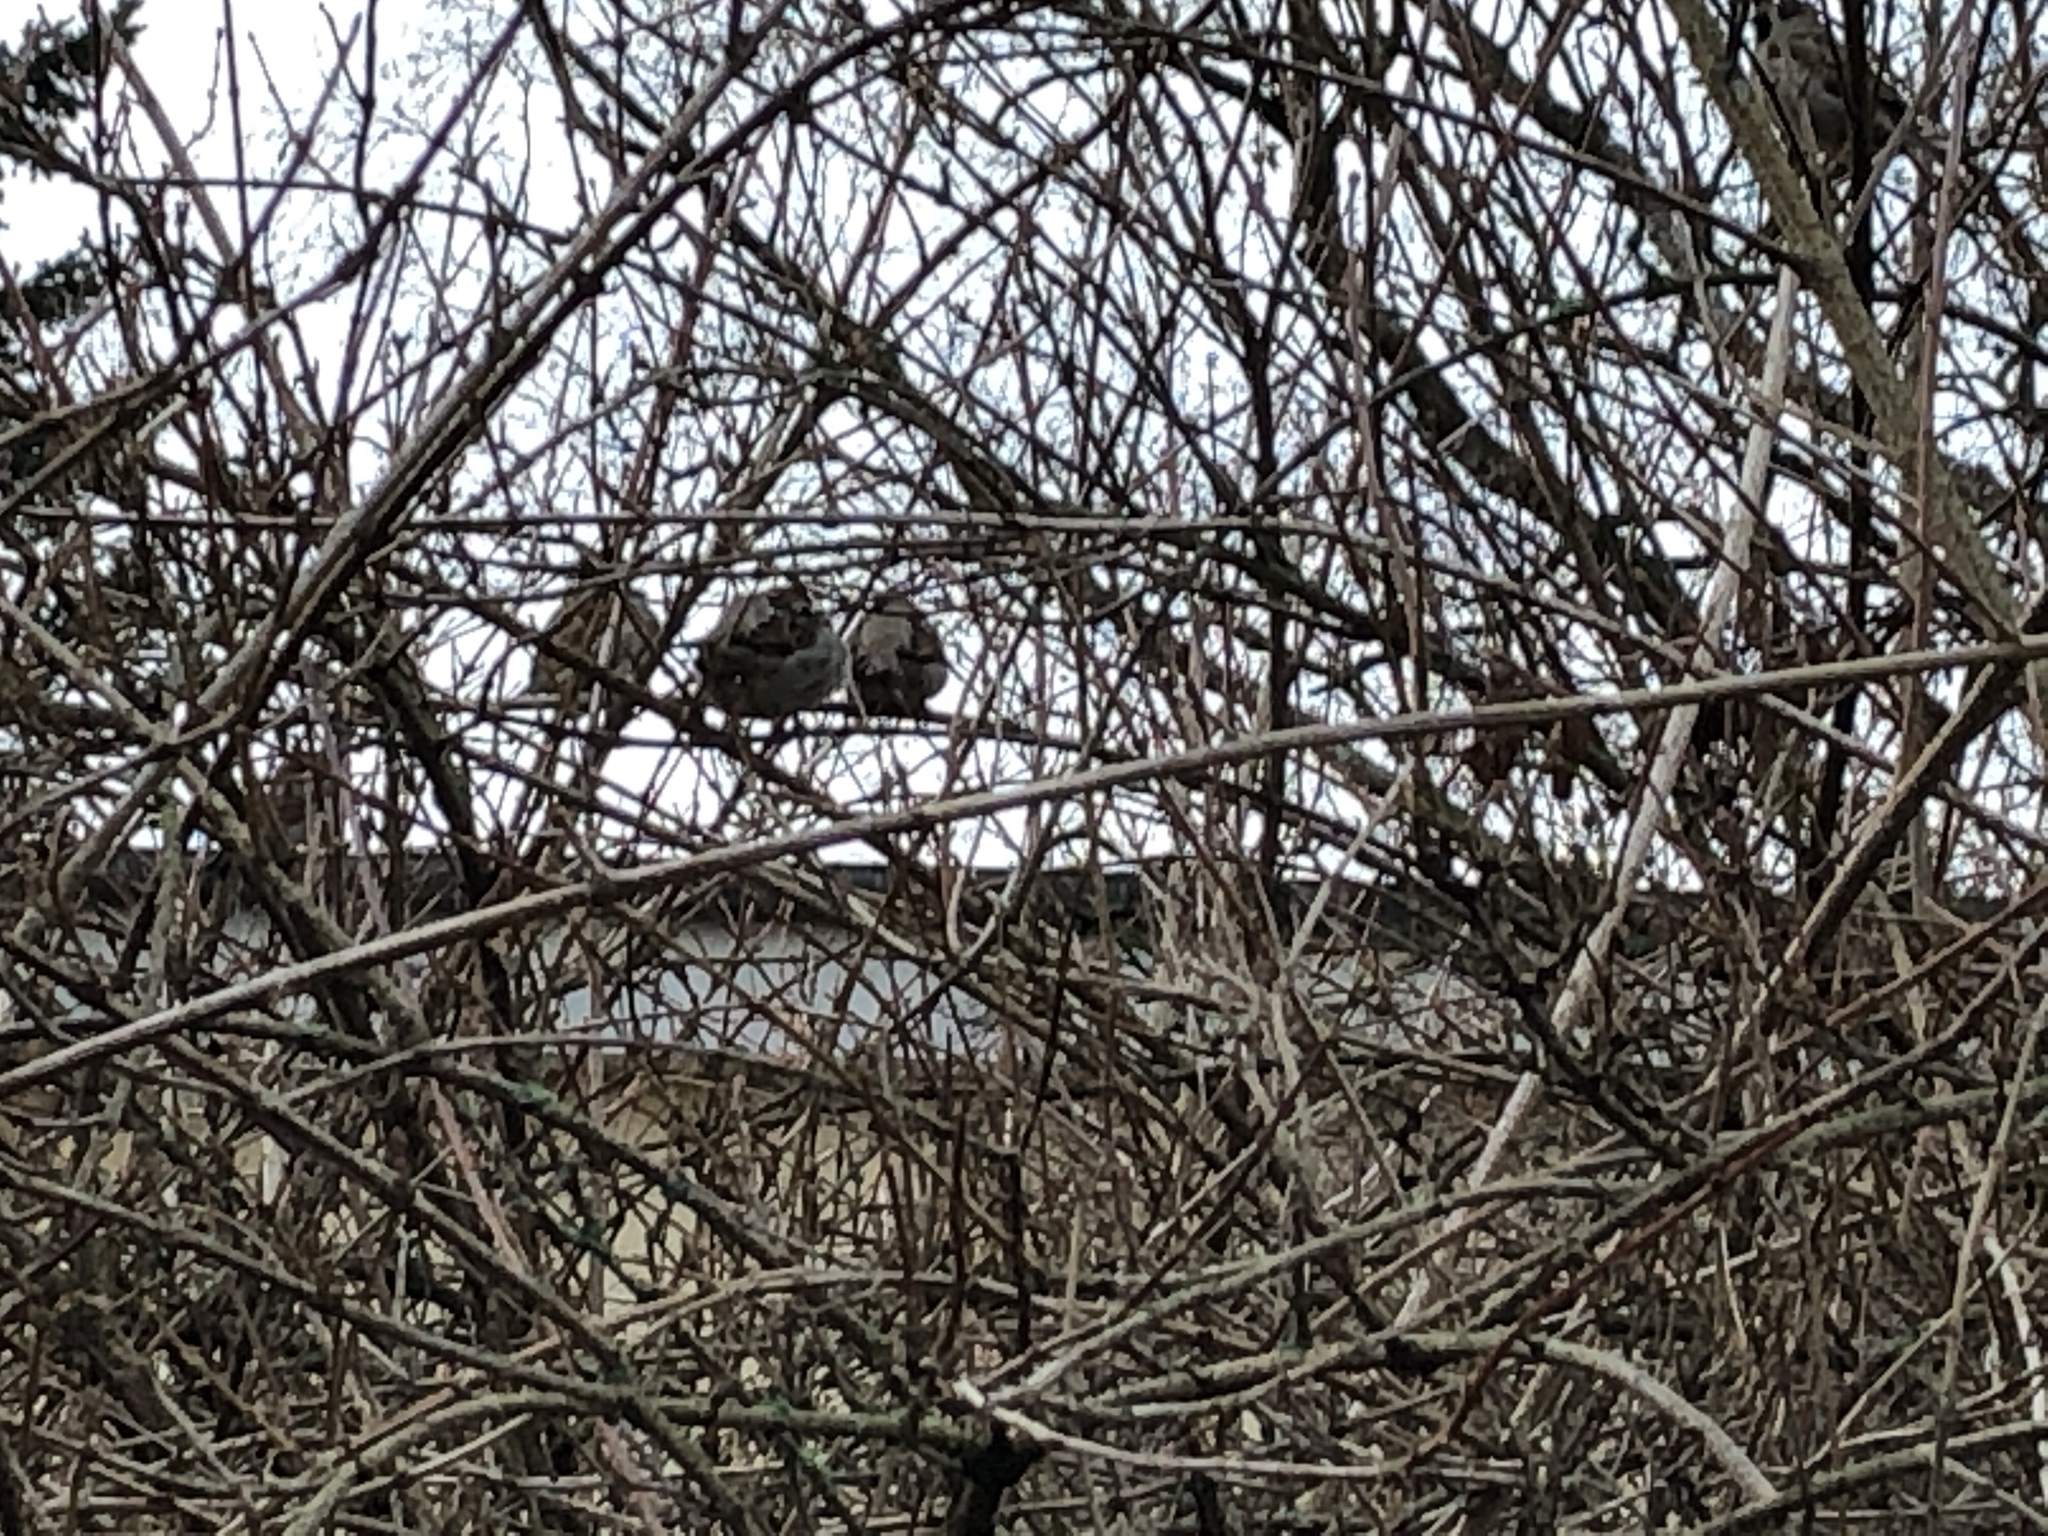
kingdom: Animalia
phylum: Chordata
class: Aves
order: Passeriformes
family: Passeridae
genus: Passer
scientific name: Passer domesticus
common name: House sparrow
